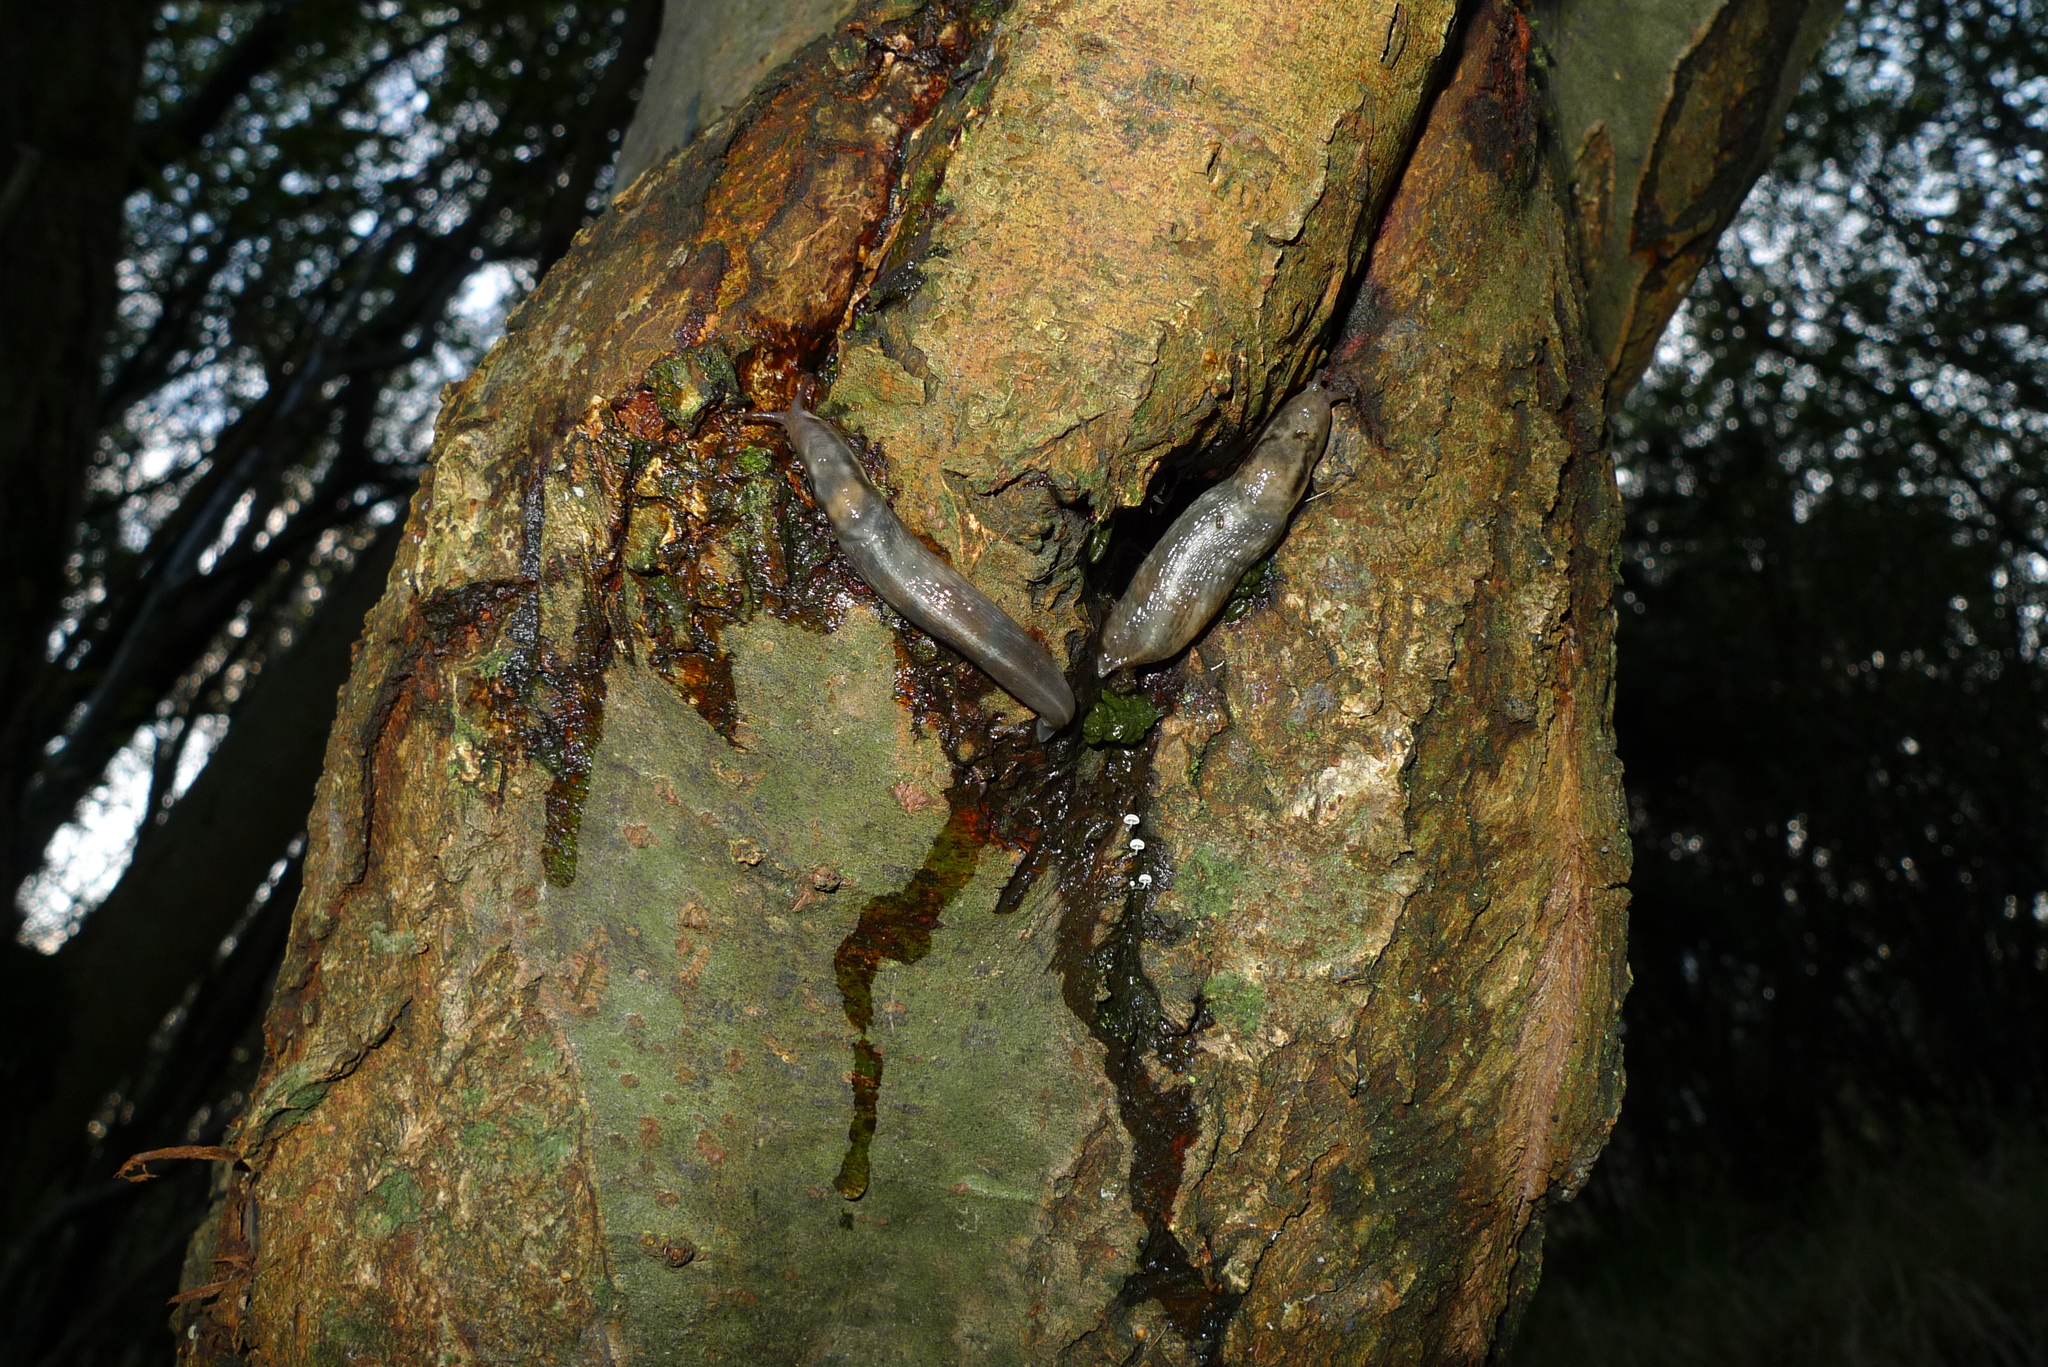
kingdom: Animalia
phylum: Mollusca
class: Gastropoda
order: Stylommatophora
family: Limacidae
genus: Lehmannia
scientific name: Lehmannia marginata
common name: Tree slug
